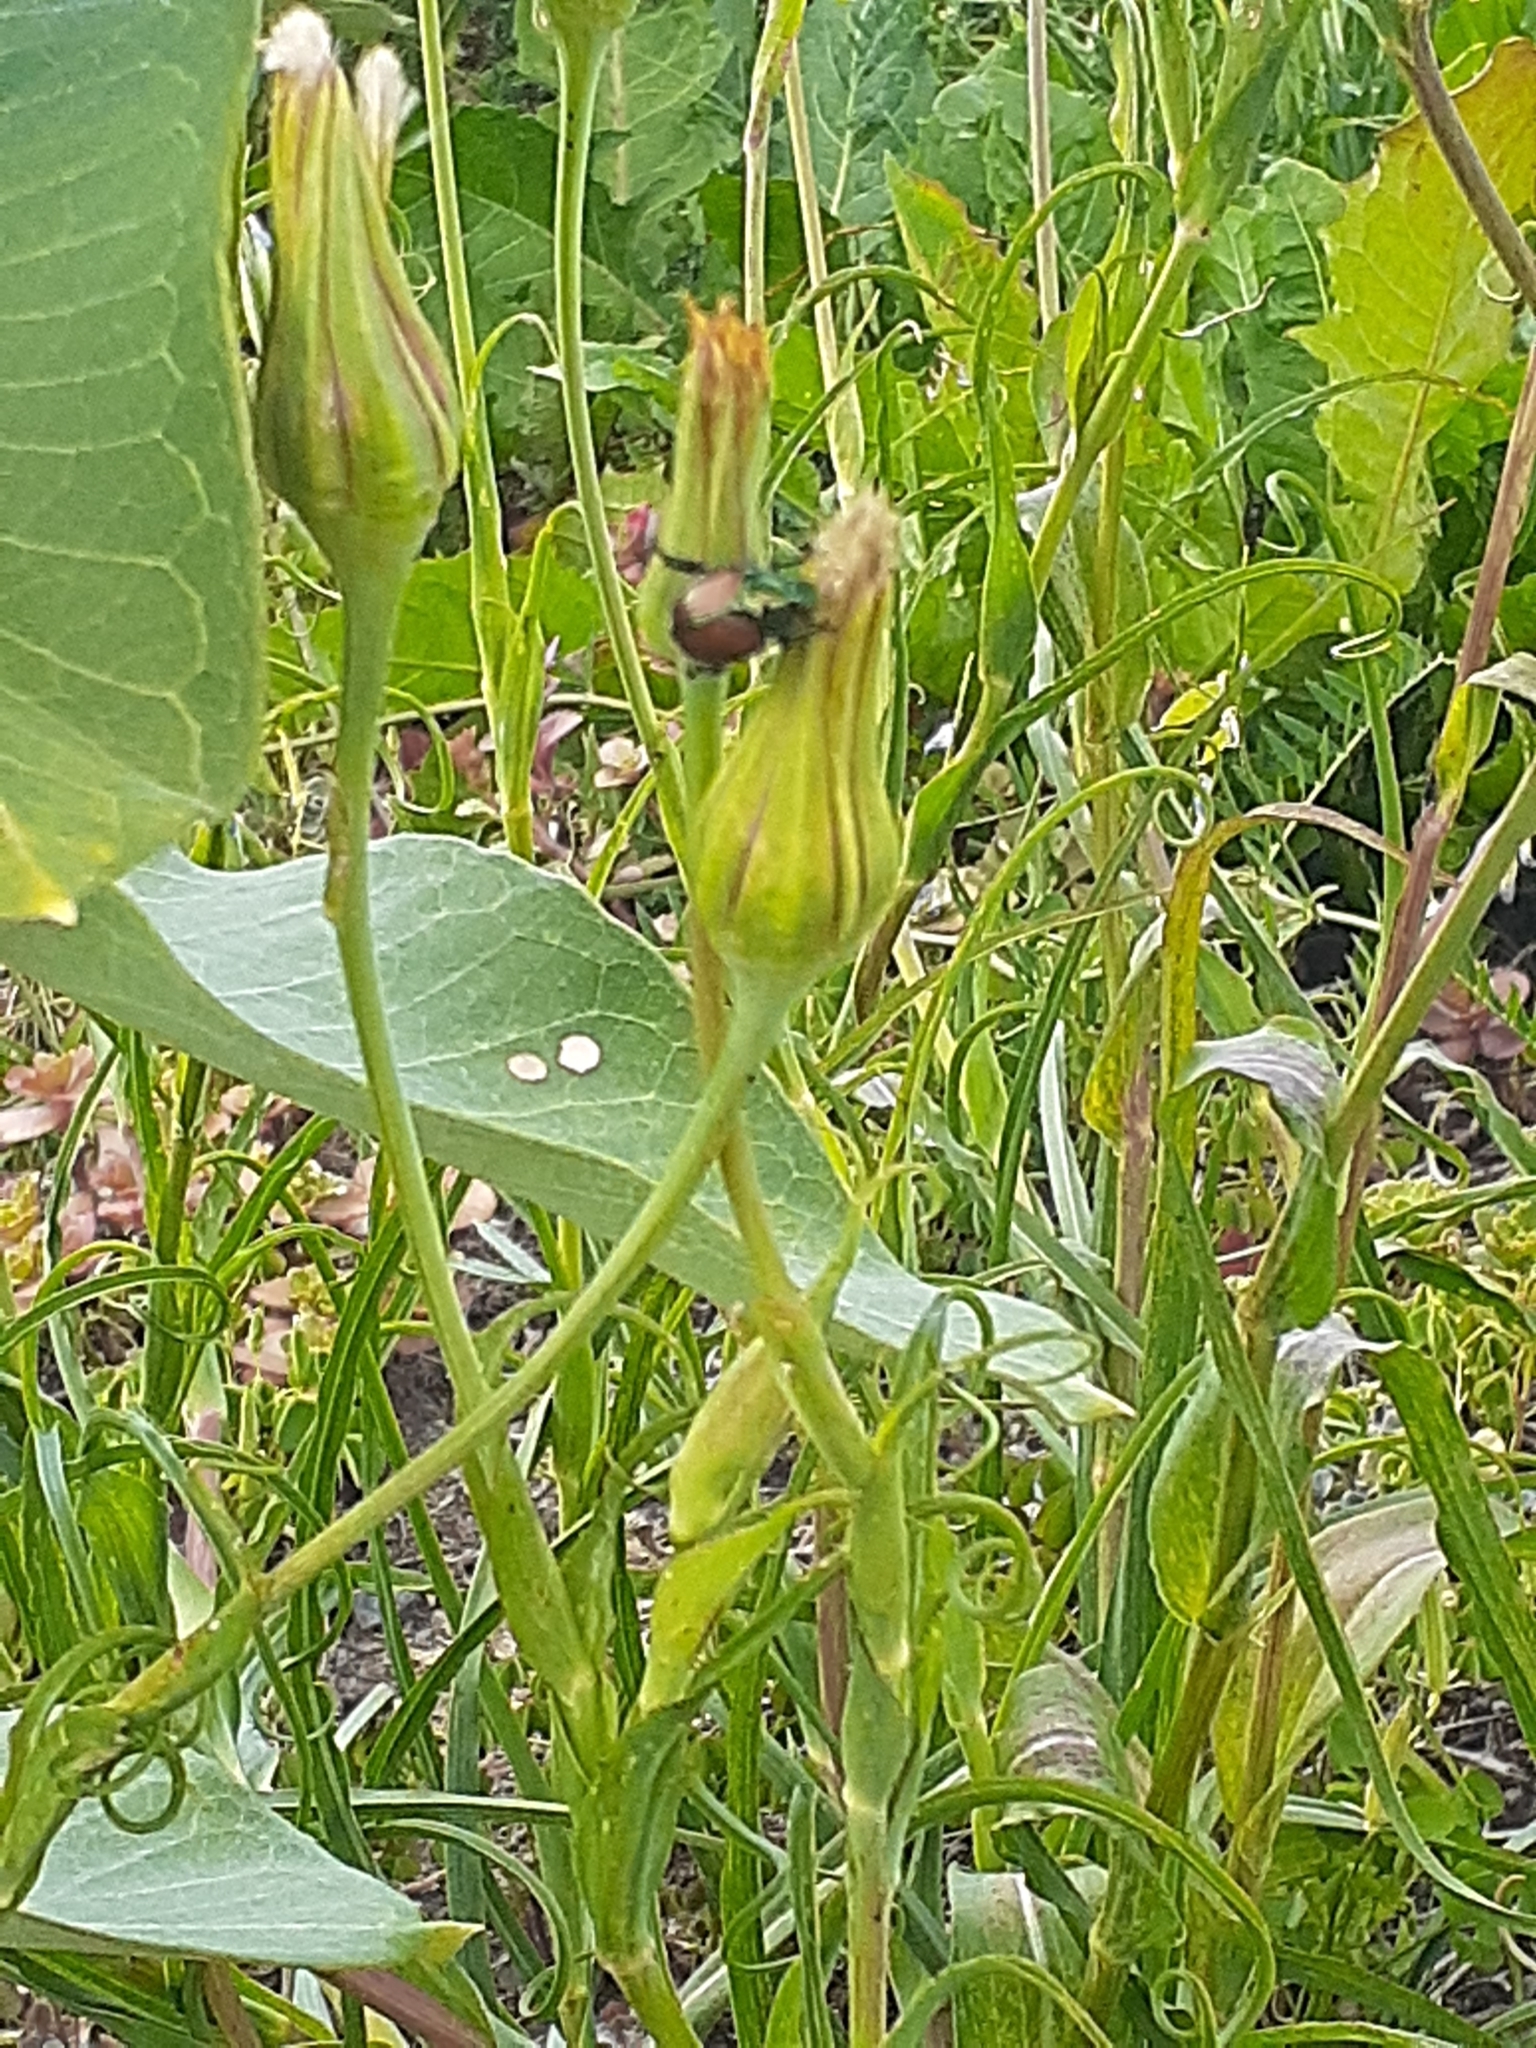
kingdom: Animalia
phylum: Arthropoda
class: Insecta
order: Coleoptera
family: Scarabaeidae
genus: Popillia
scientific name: Popillia japonica
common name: Japanese beetle
